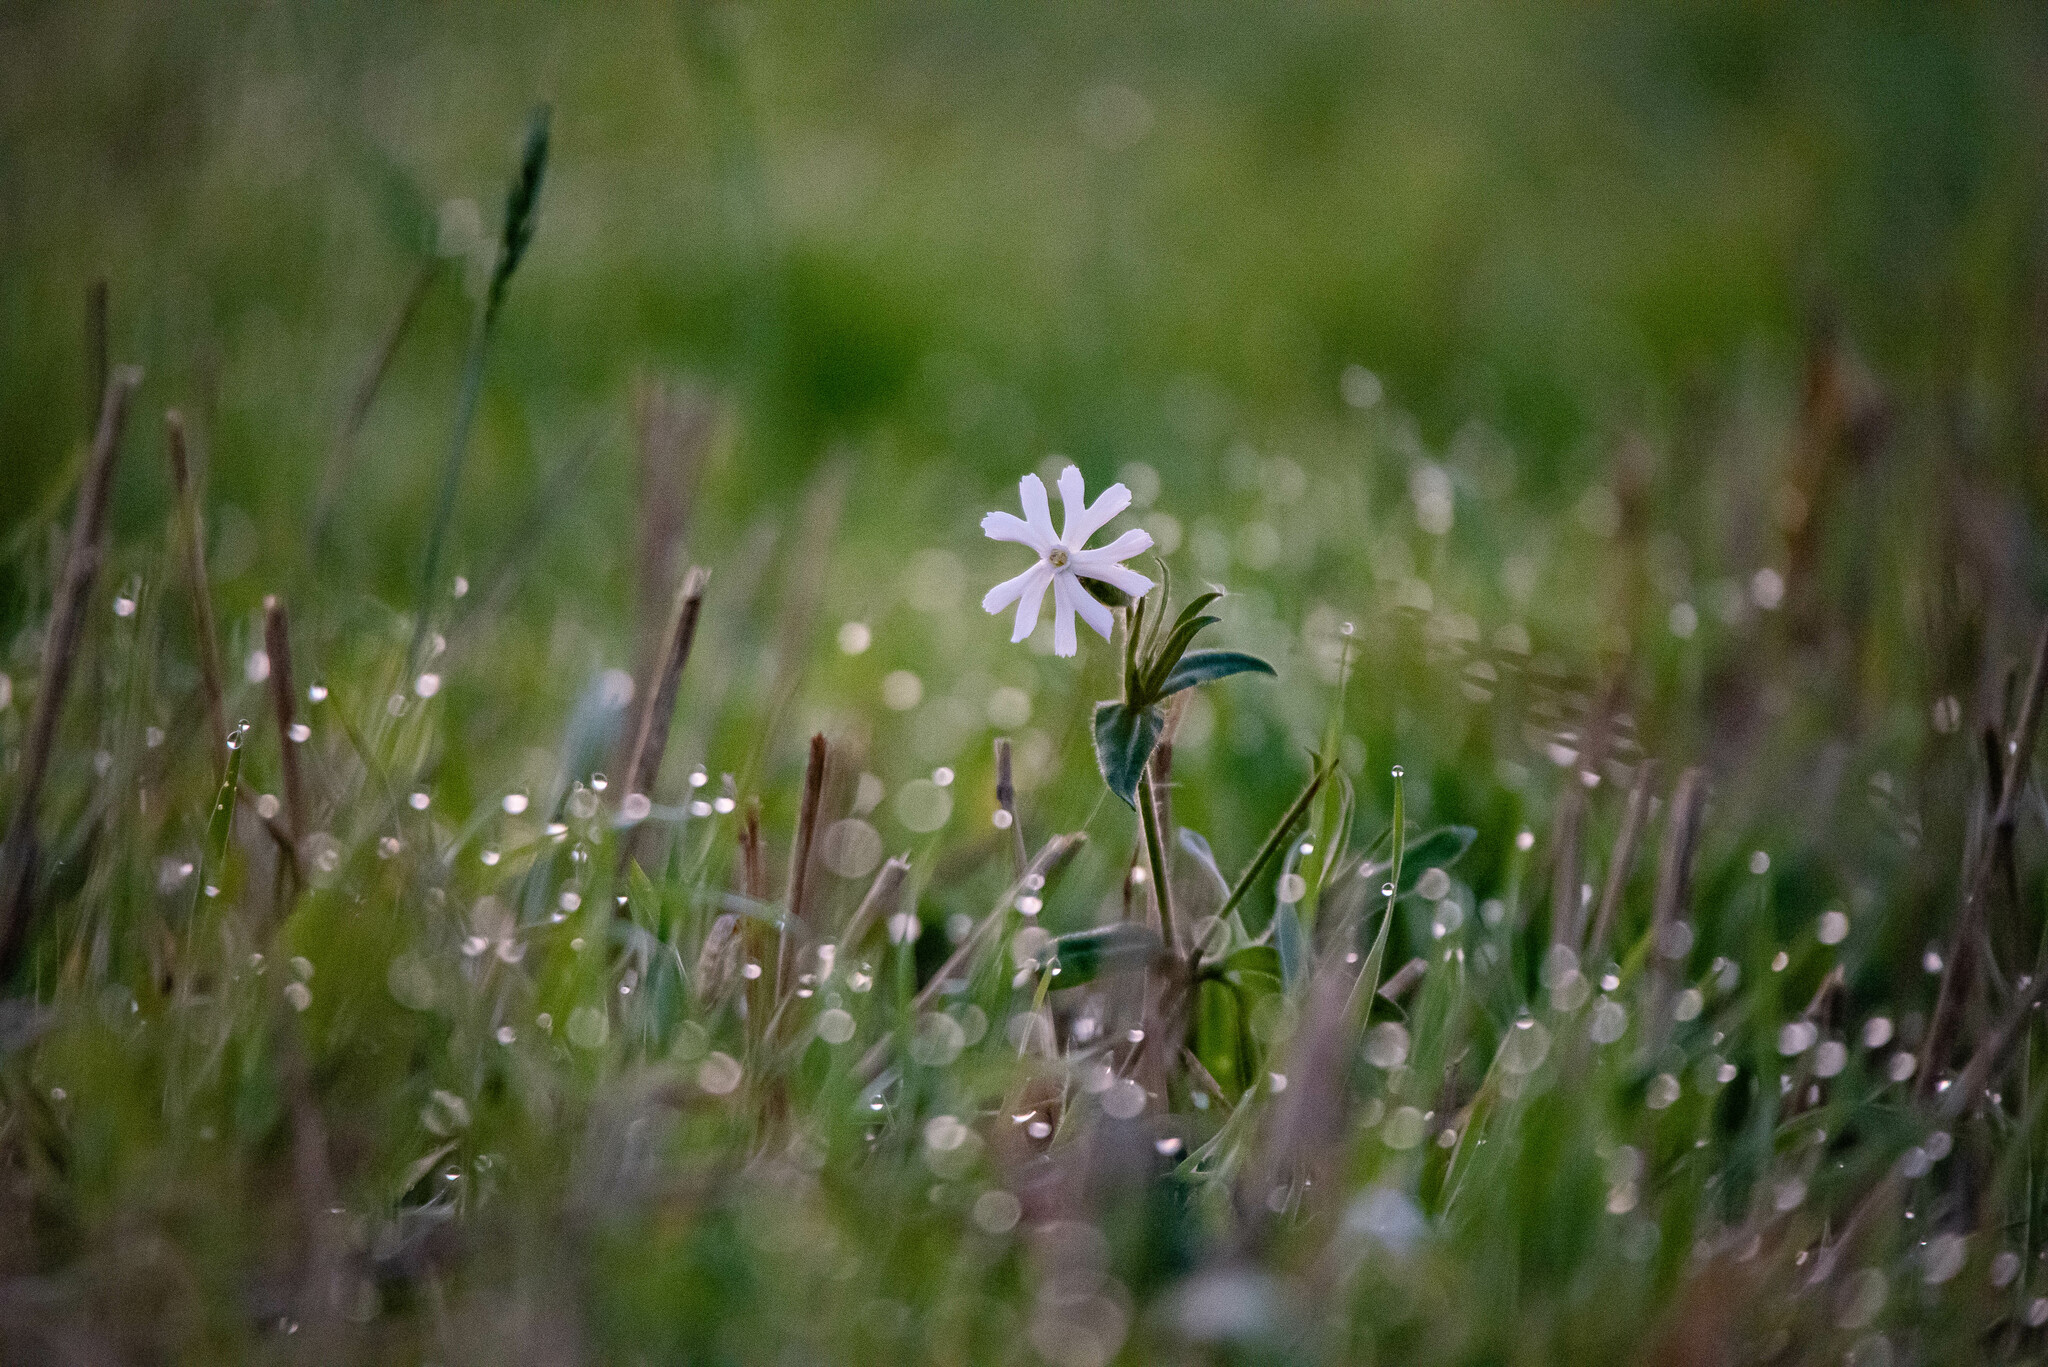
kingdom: Plantae
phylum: Tracheophyta
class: Magnoliopsida
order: Caryophyllales
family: Caryophyllaceae
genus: Silene
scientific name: Silene latifolia
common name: White campion
